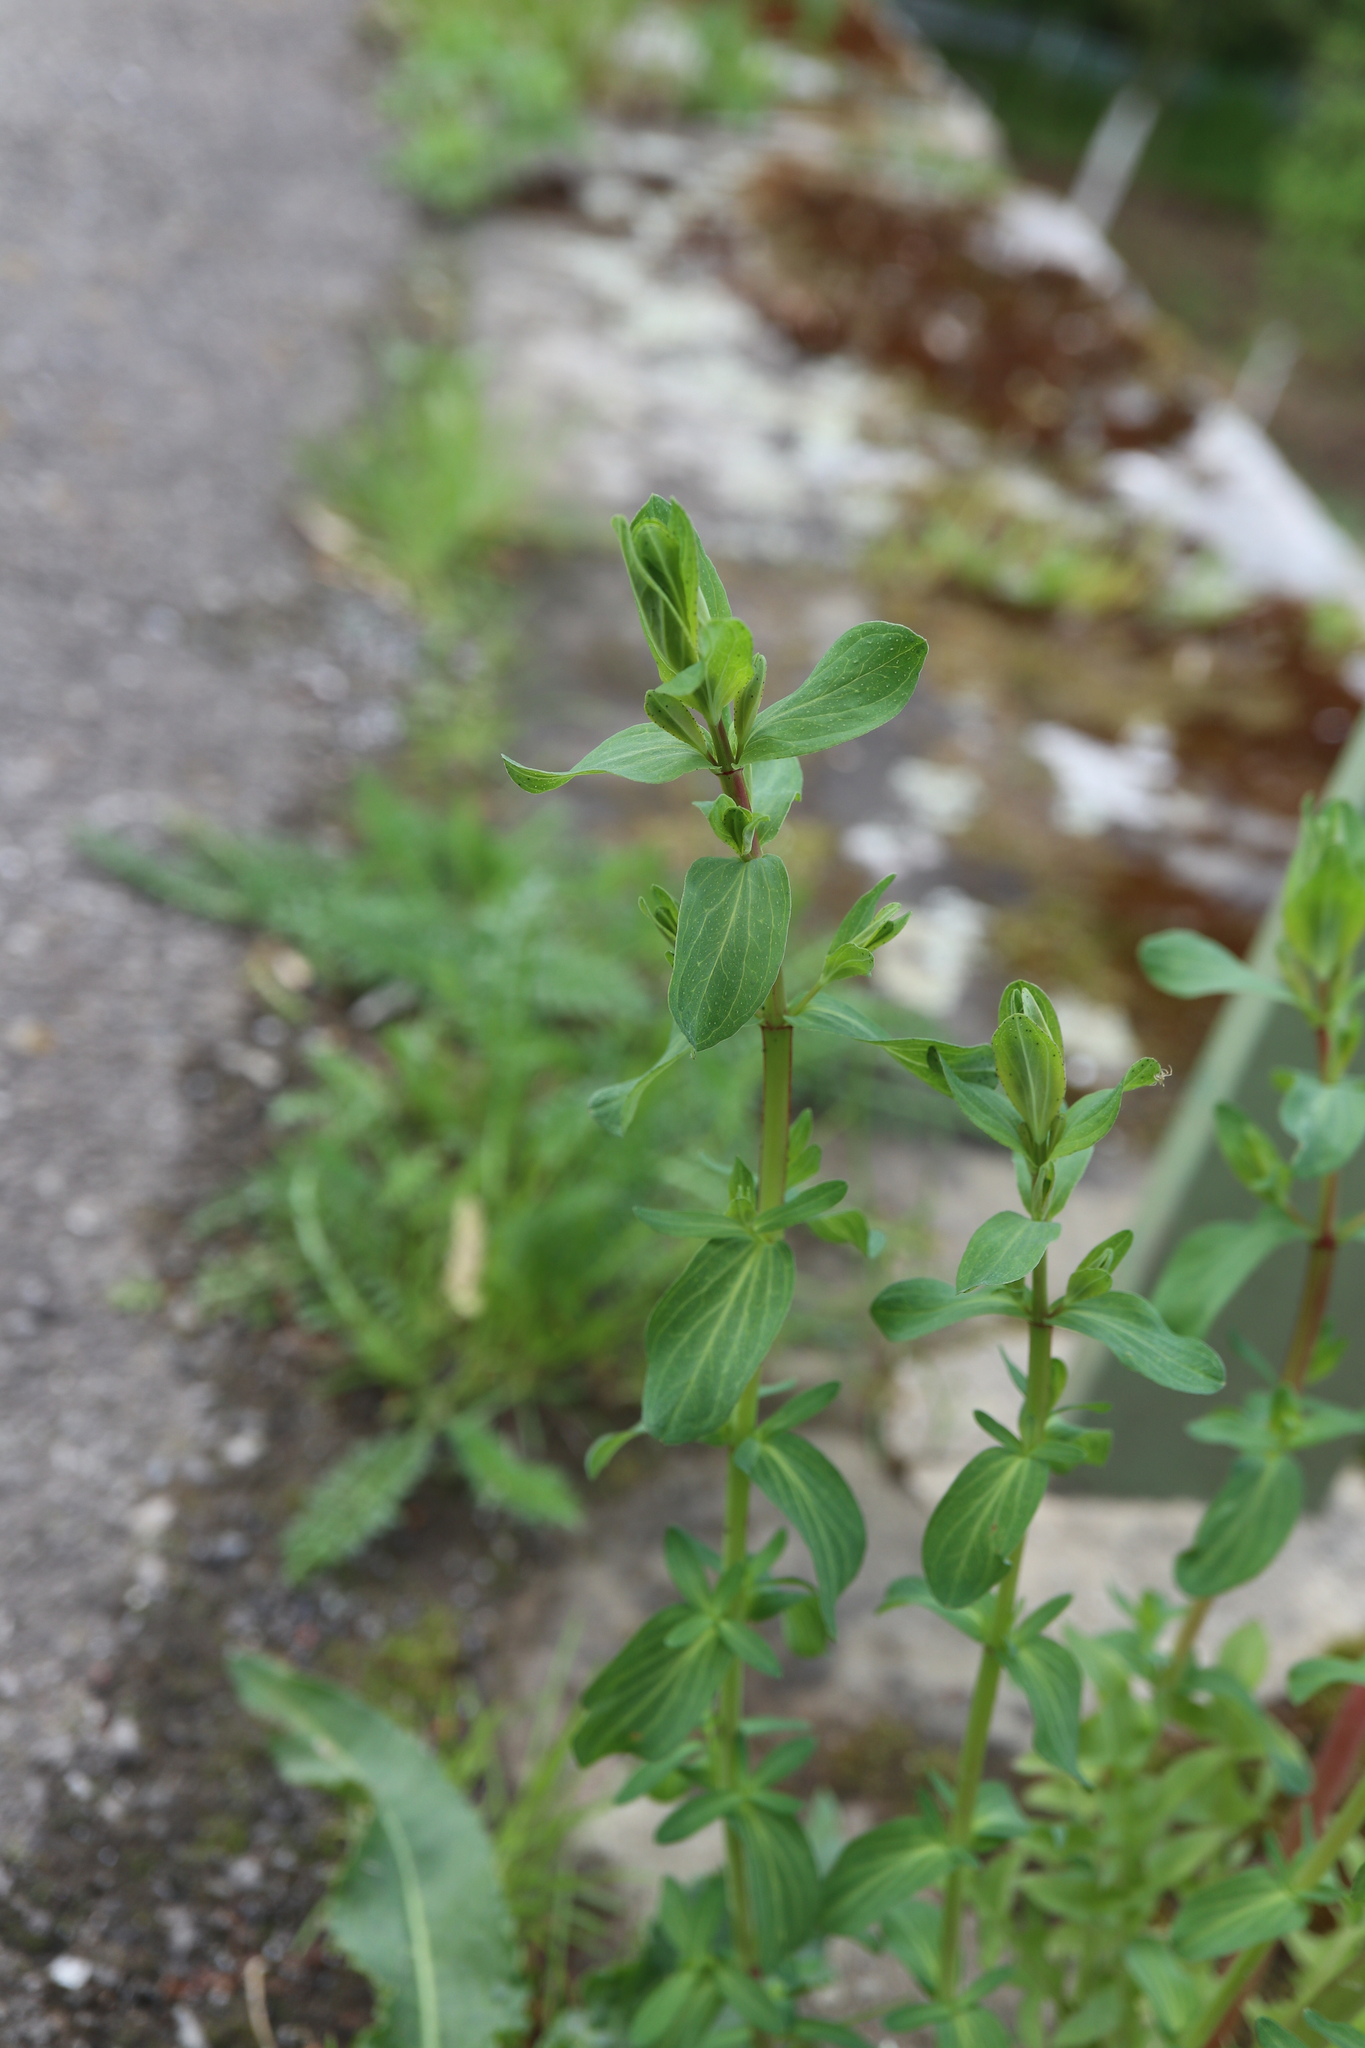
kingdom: Plantae
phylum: Tracheophyta
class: Magnoliopsida
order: Malpighiales
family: Hypericaceae
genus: Hypericum
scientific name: Hypericum perforatum
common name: Common st. johnswort
